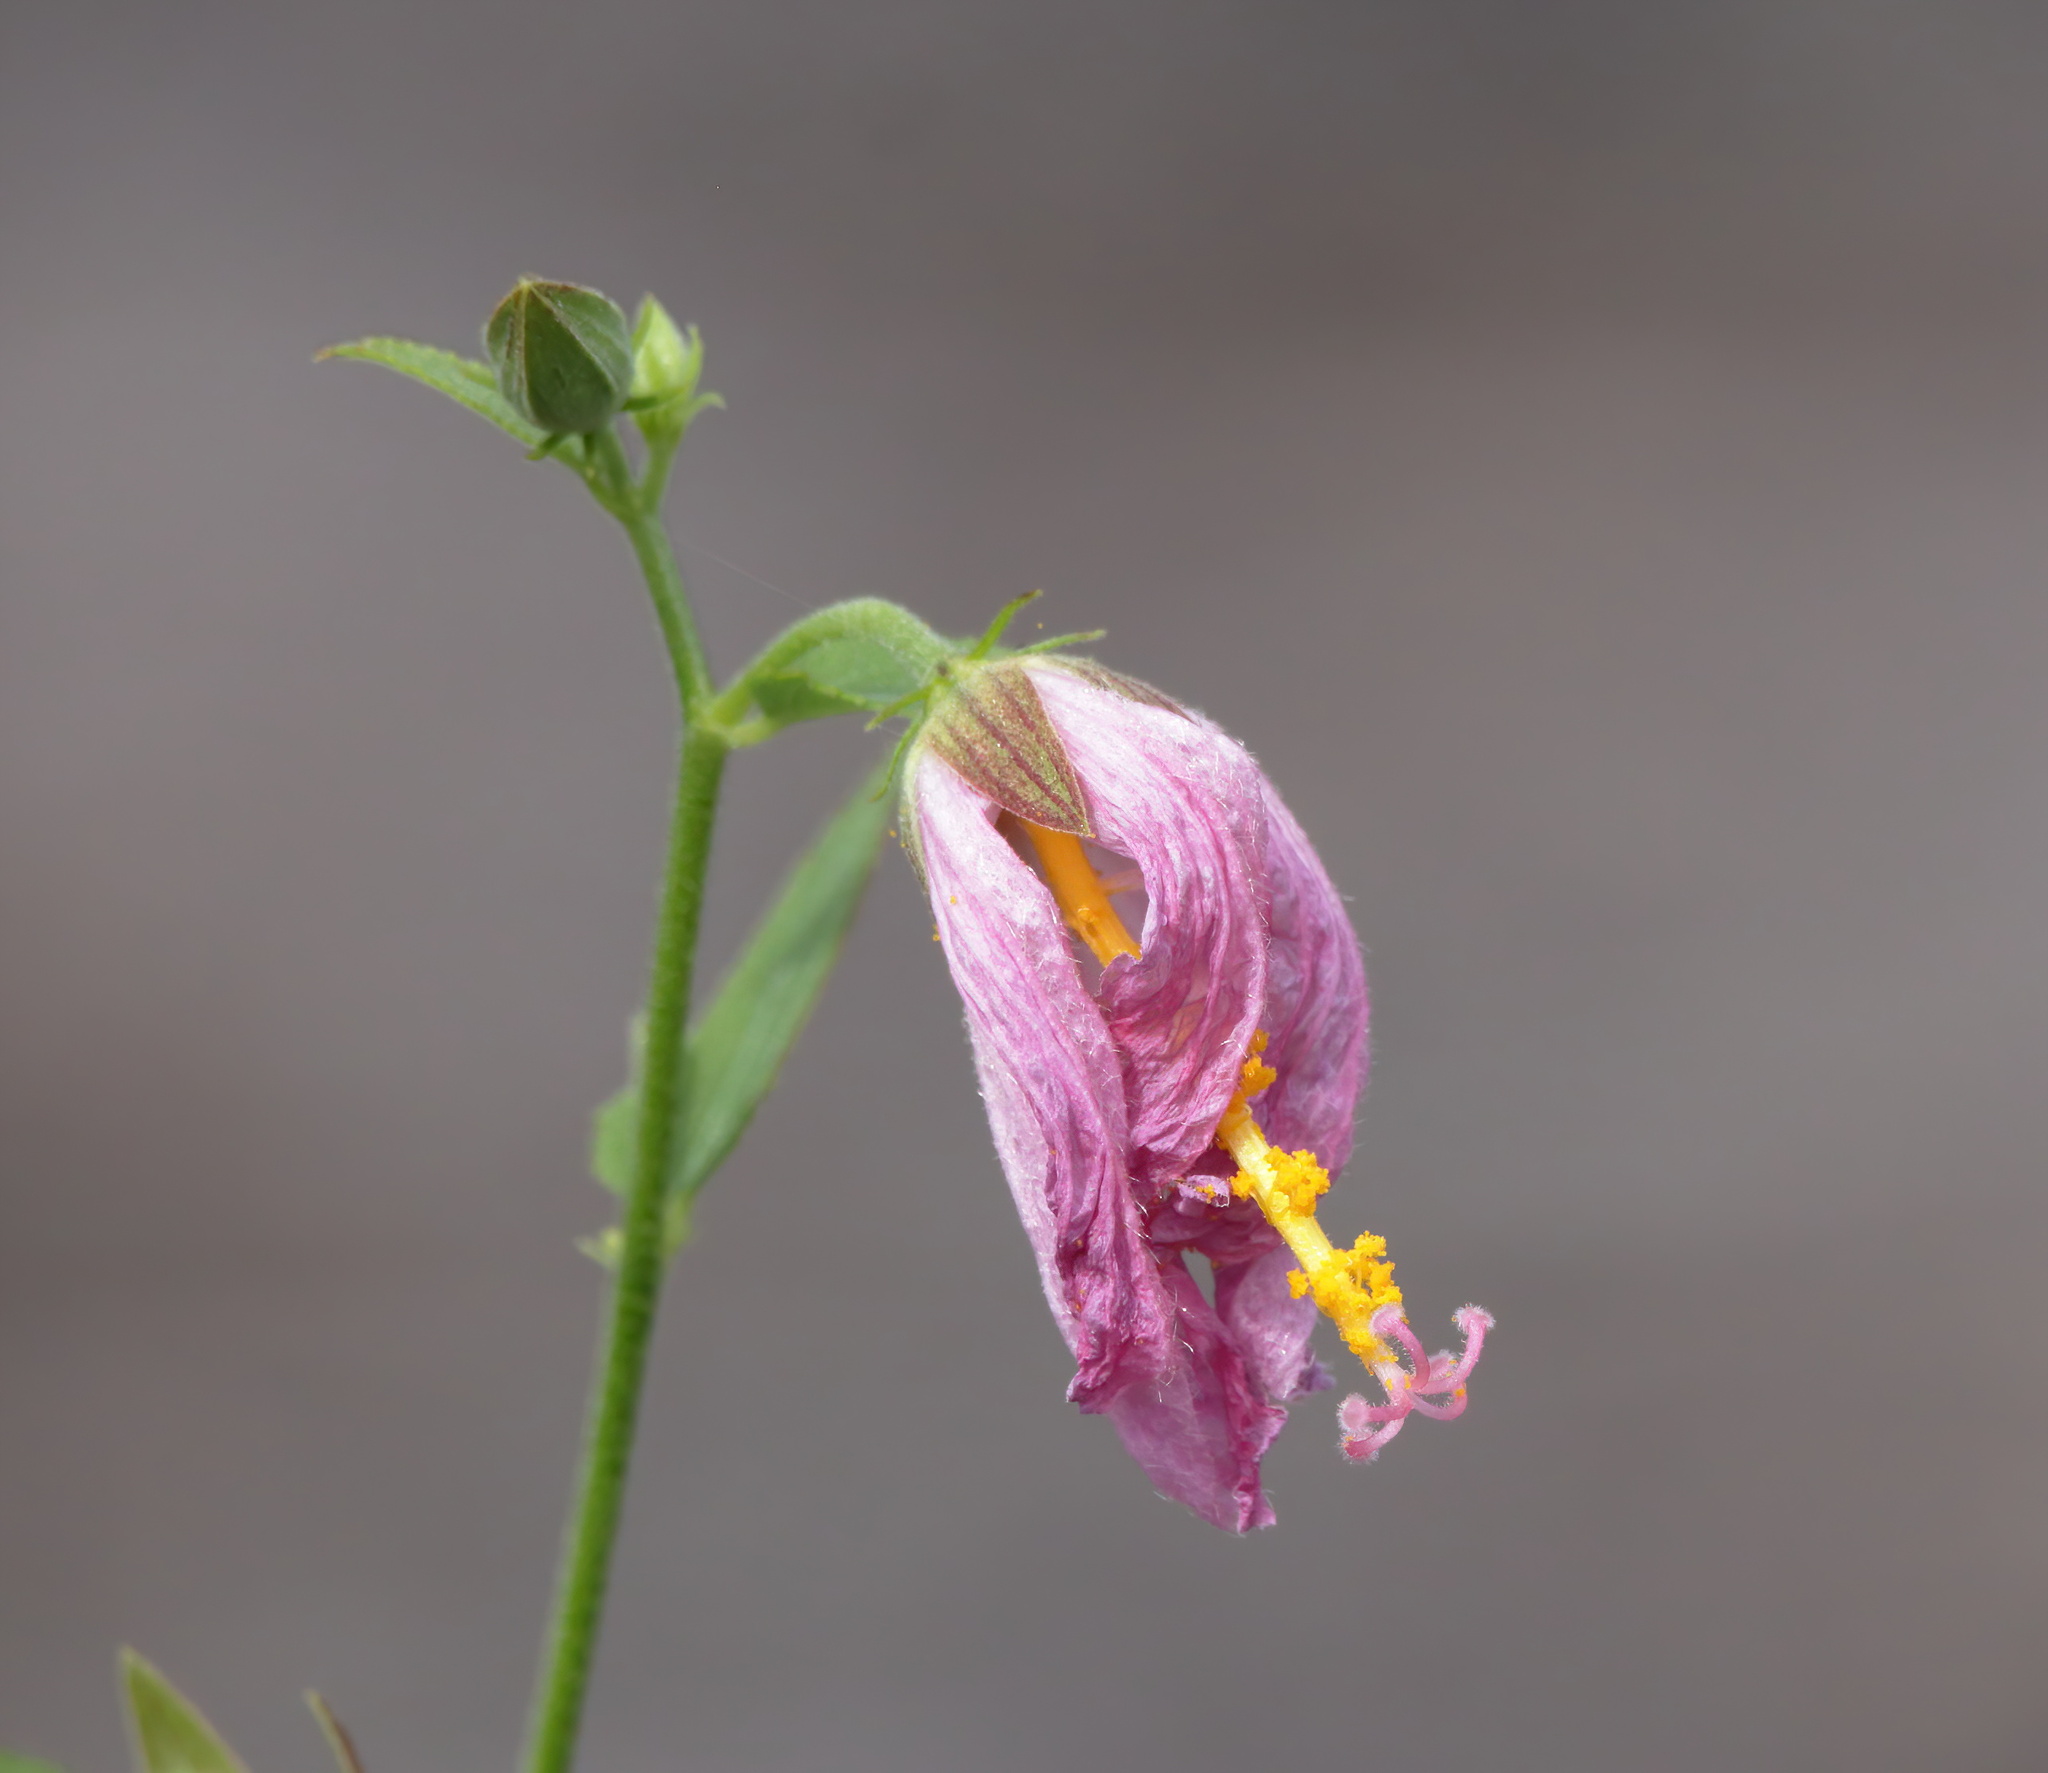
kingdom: Plantae
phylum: Tracheophyta
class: Magnoliopsida
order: Malvales
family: Malvaceae
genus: Kosteletzkya
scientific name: Kosteletzkya pentacarpos
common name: Virginia saltmarsh mallow
